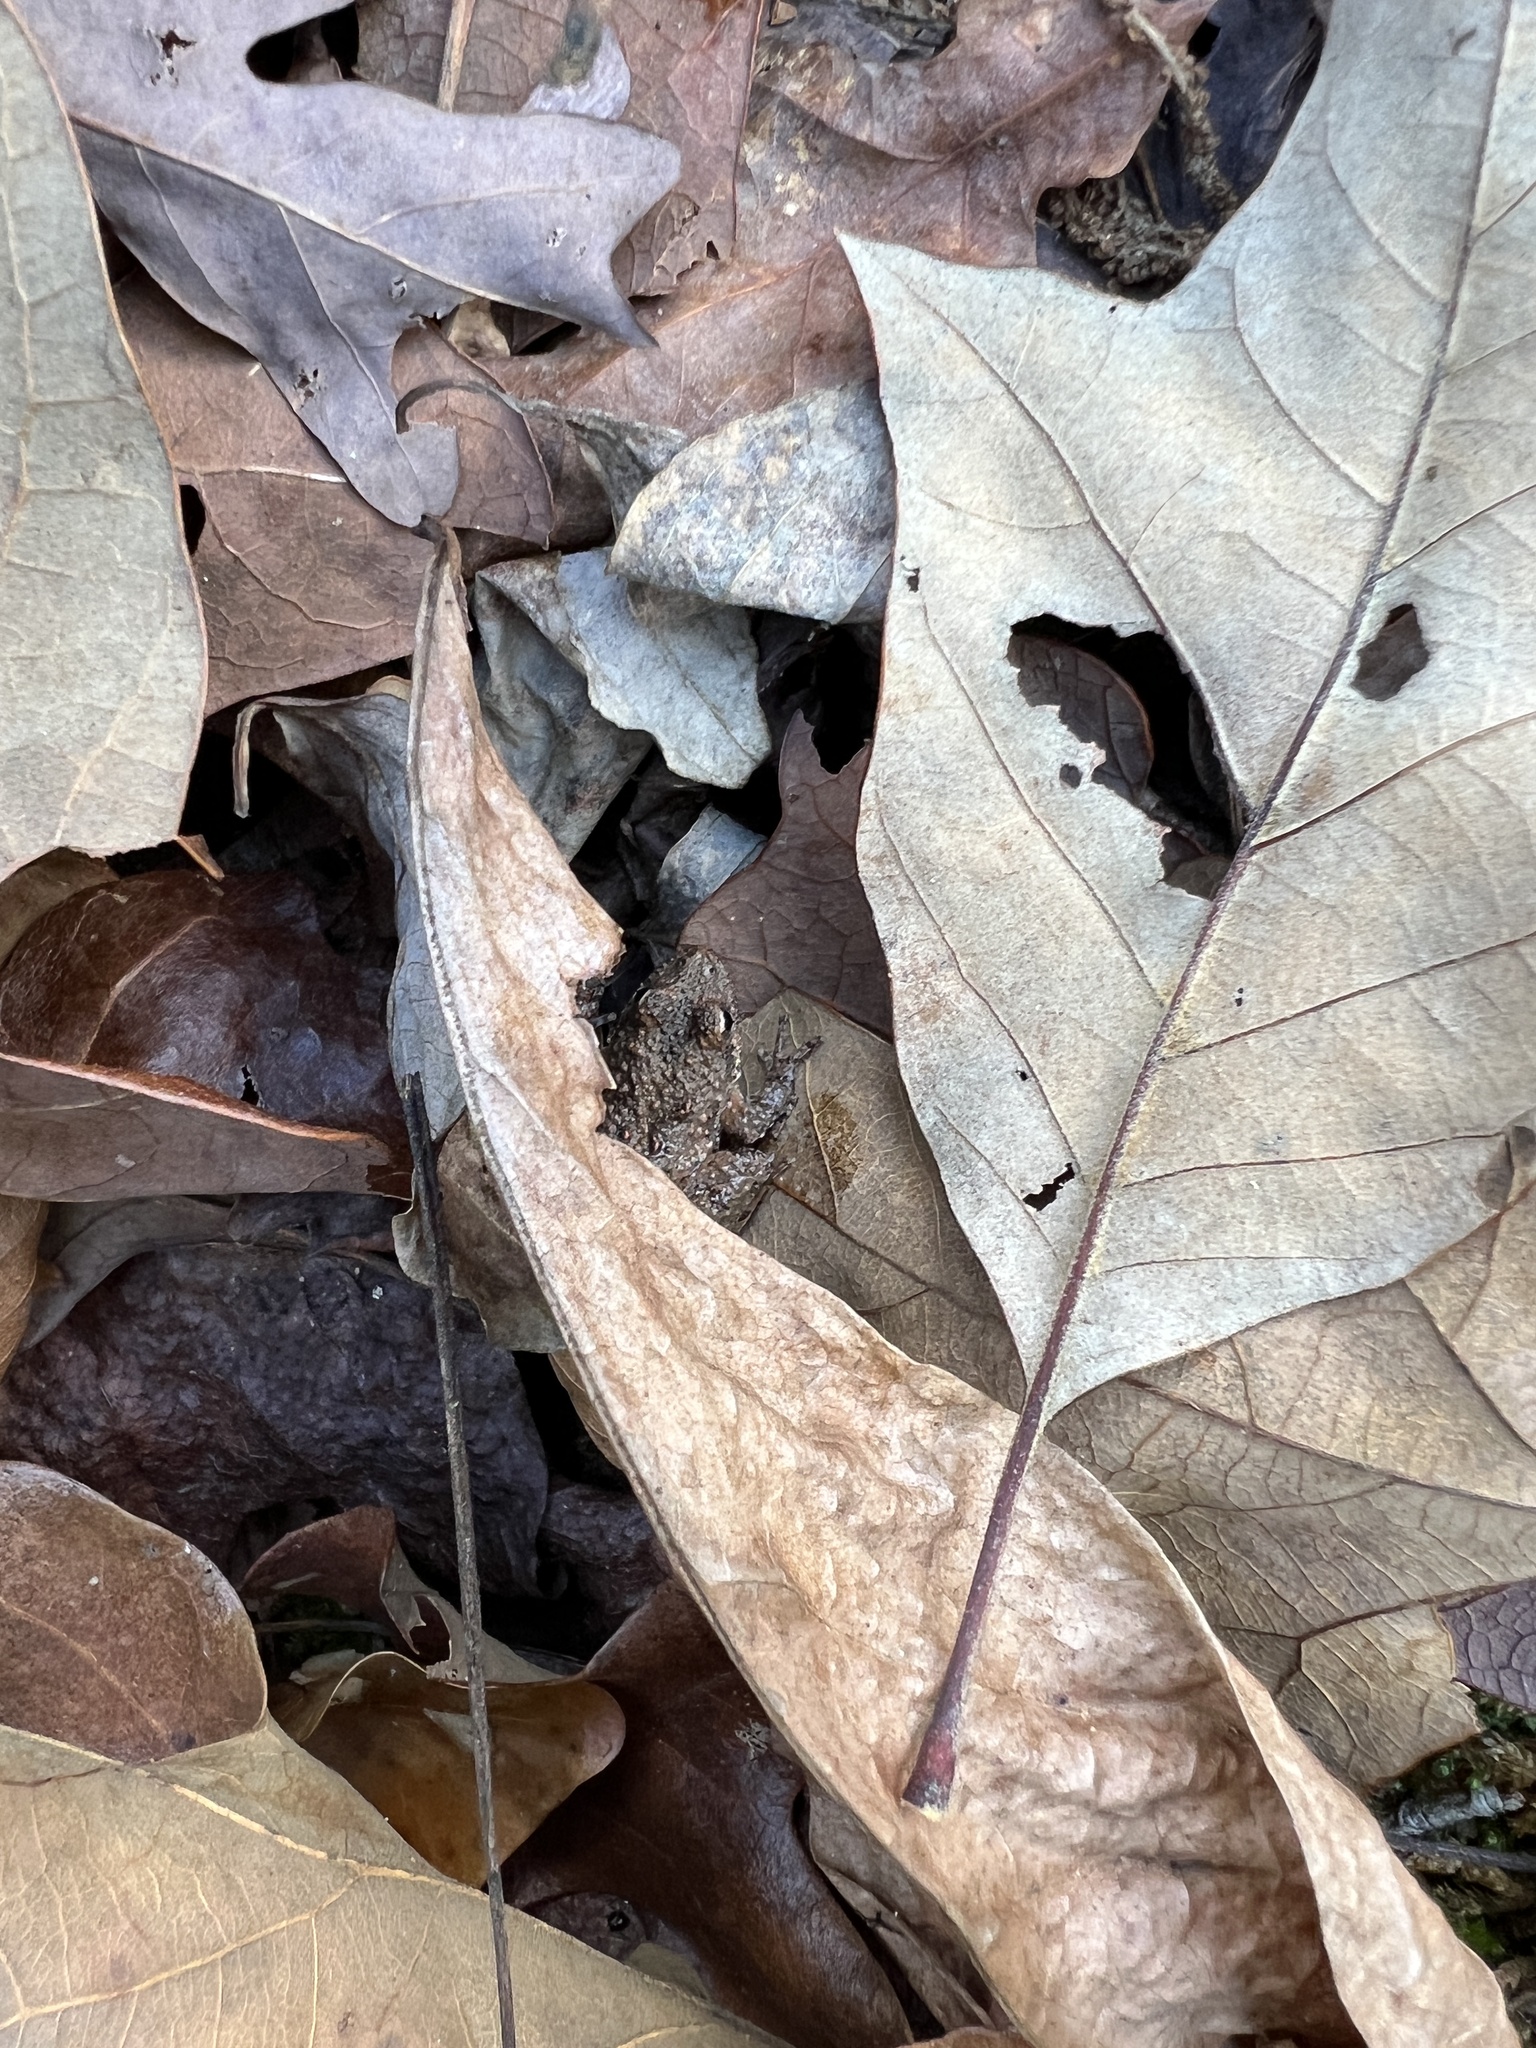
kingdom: Animalia
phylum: Chordata
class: Amphibia
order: Anura
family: Hylidae
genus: Acris
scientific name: Acris
